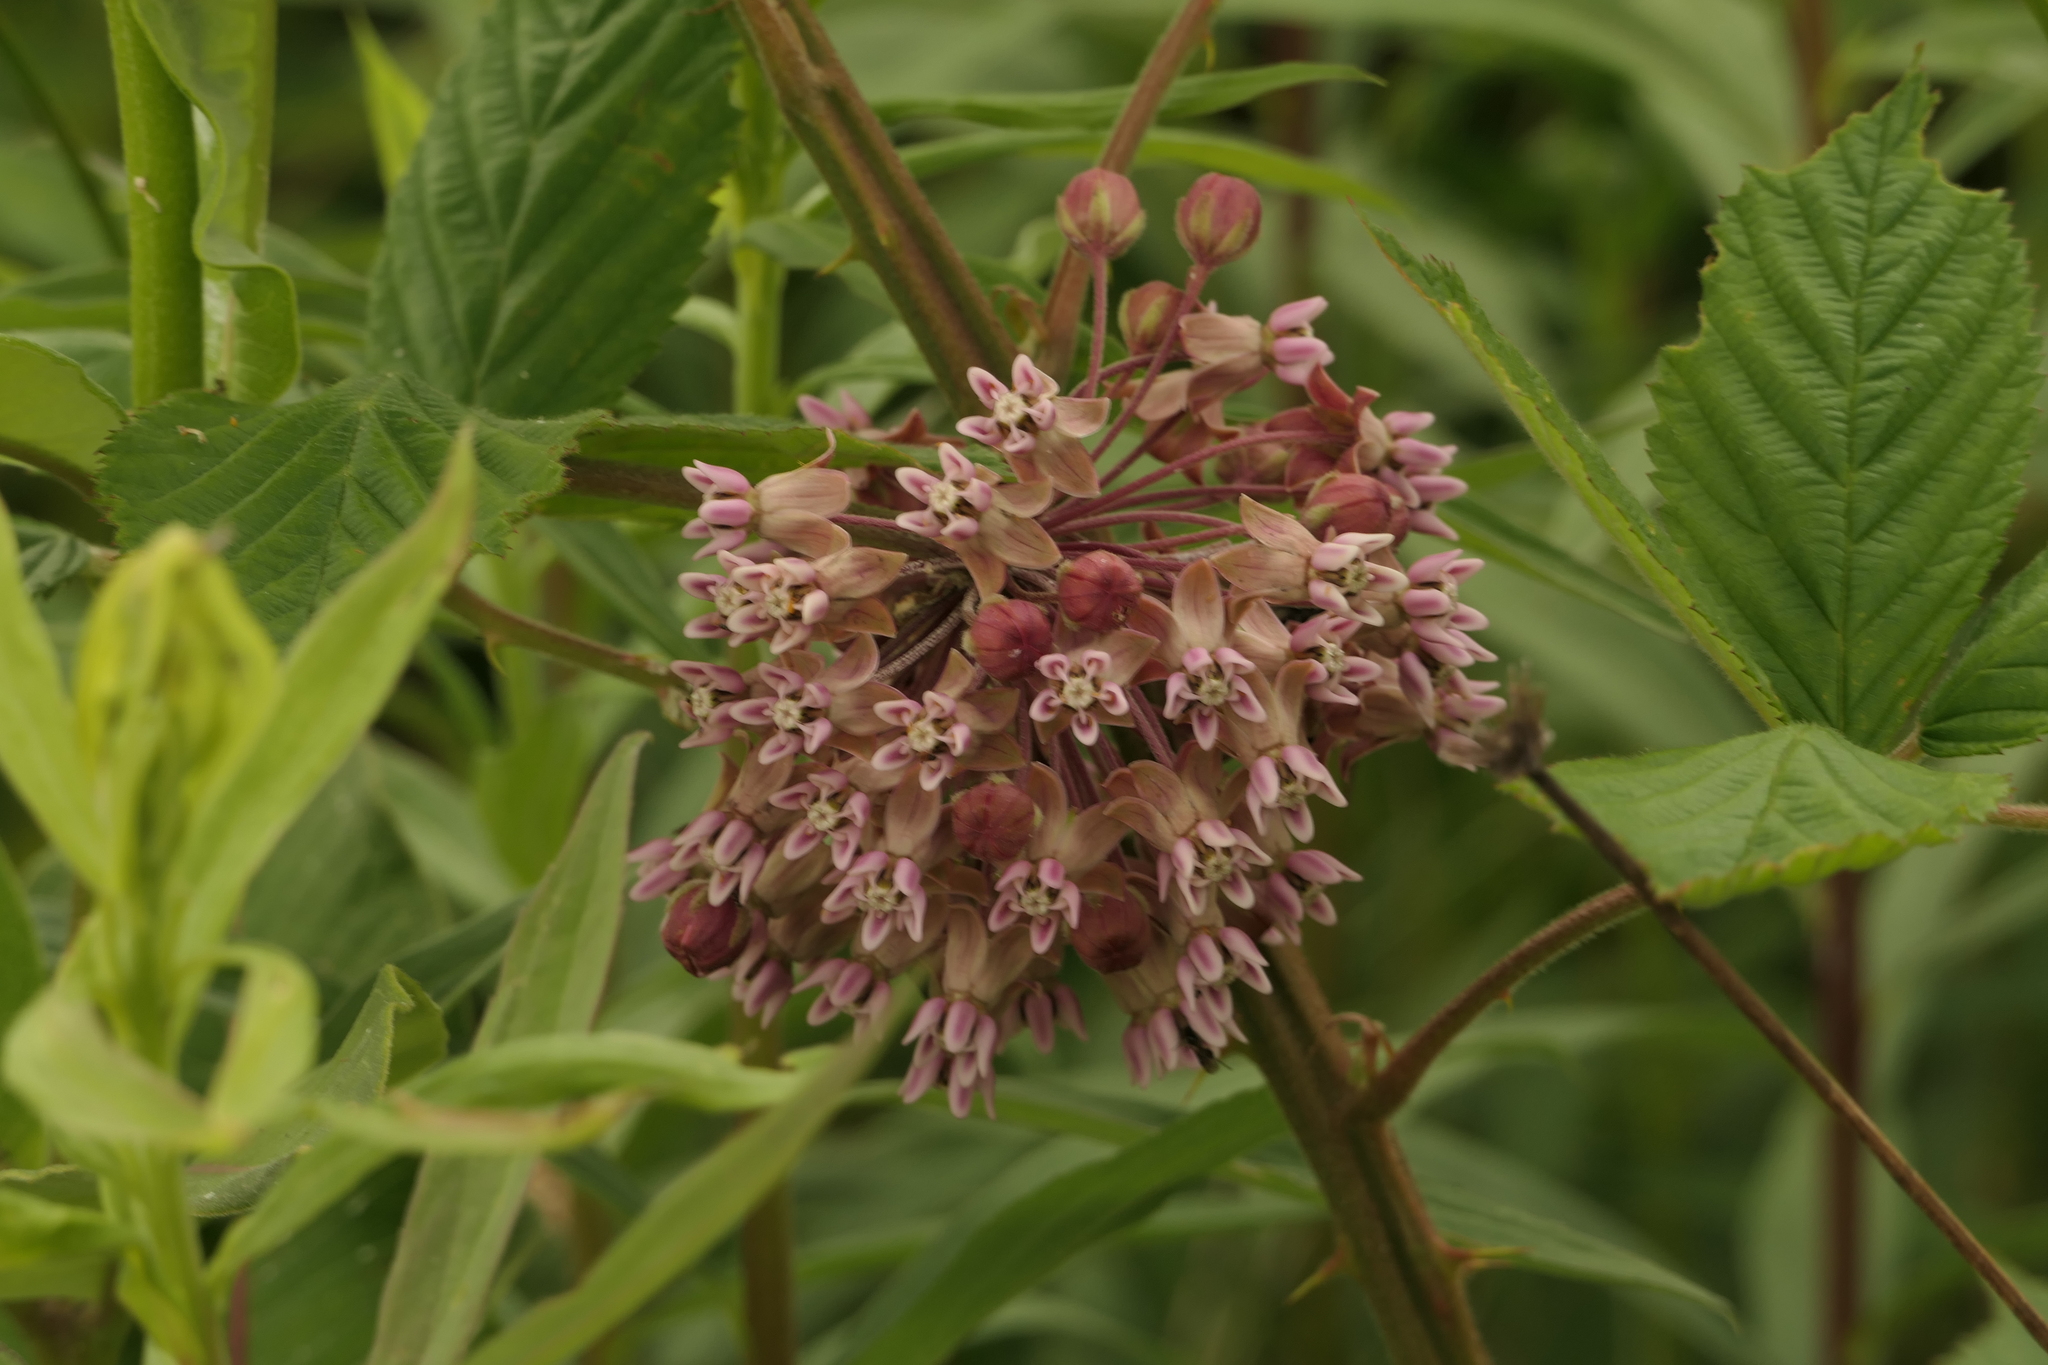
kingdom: Plantae
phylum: Tracheophyta
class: Magnoliopsida
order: Gentianales
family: Apocynaceae
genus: Asclepias
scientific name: Asclepias syriaca
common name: Common milkweed
